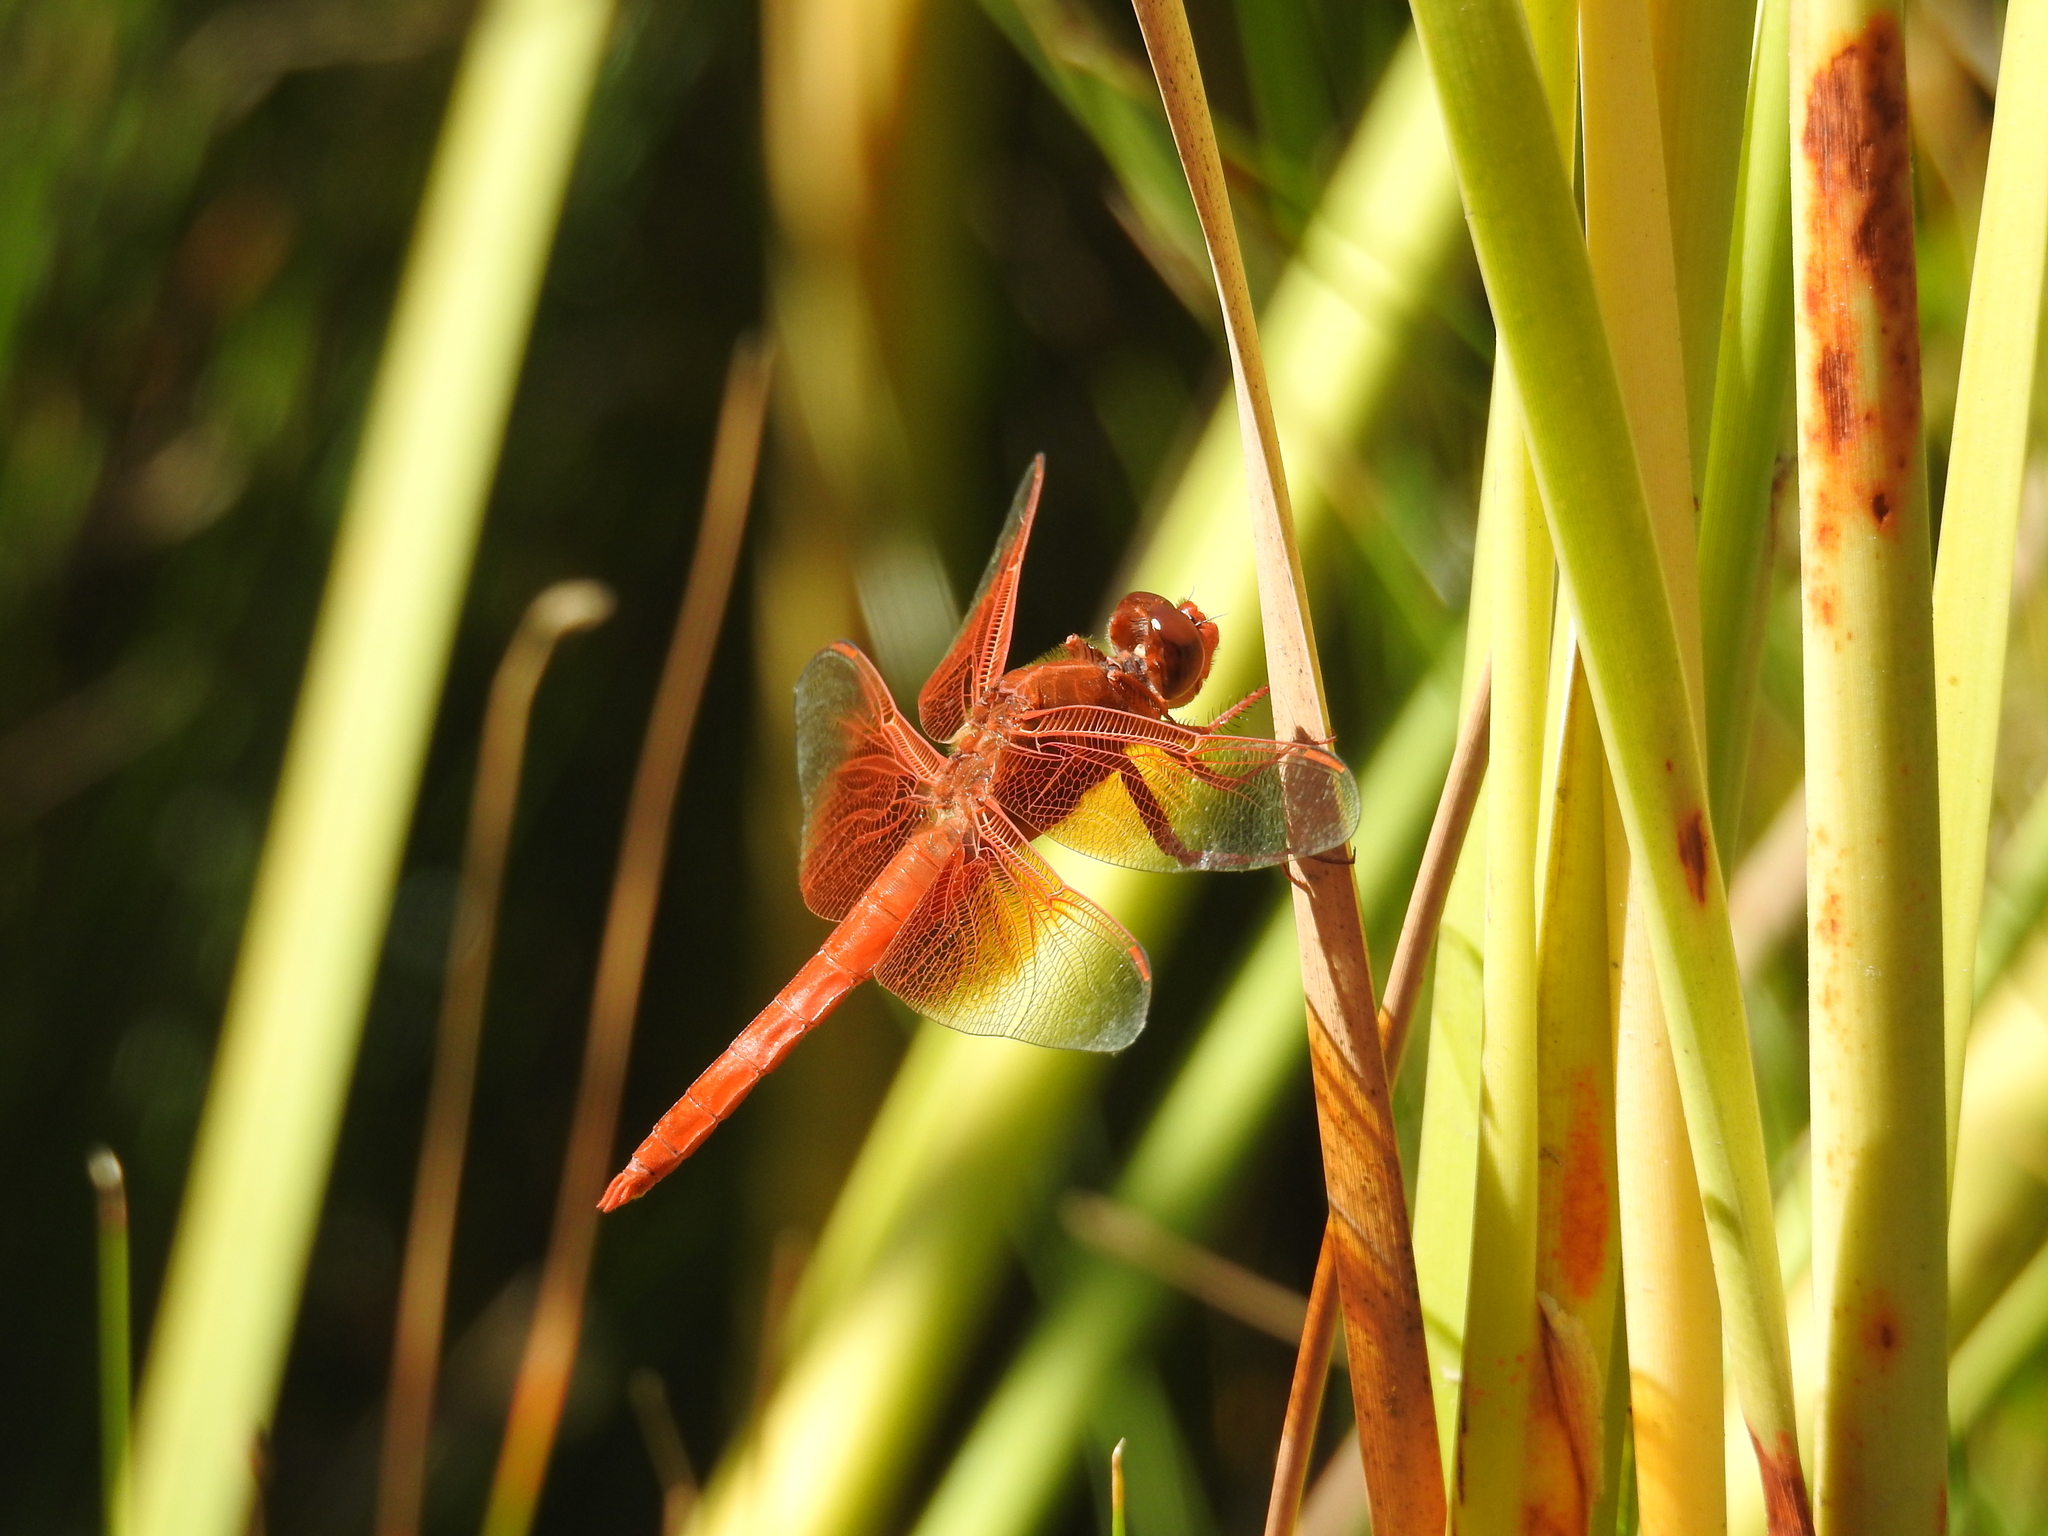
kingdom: Animalia
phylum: Arthropoda
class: Insecta
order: Odonata
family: Libellulidae
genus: Libellula
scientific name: Libellula saturata
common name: Flame skimmer
